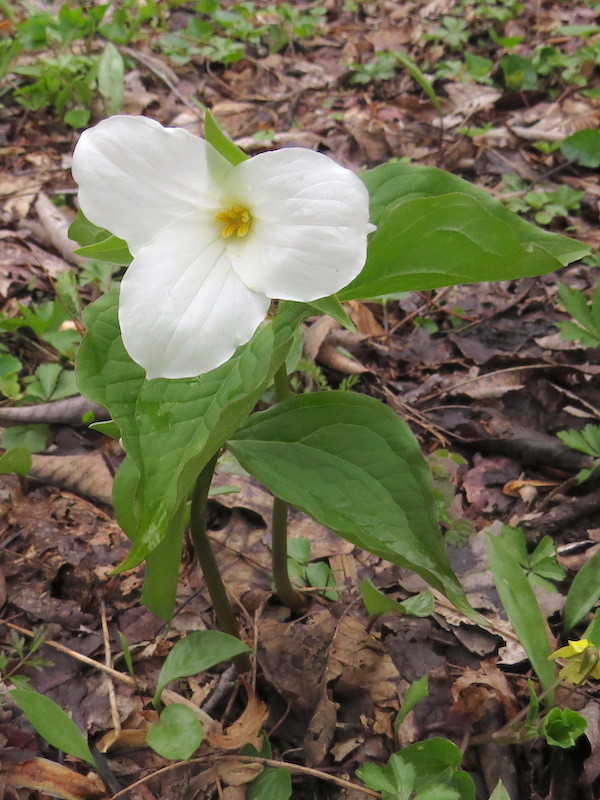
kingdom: Plantae
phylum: Tracheophyta
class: Liliopsida
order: Liliales
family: Melanthiaceae
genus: Trillium
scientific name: Trillium grandiflorum
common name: Great white trillium
